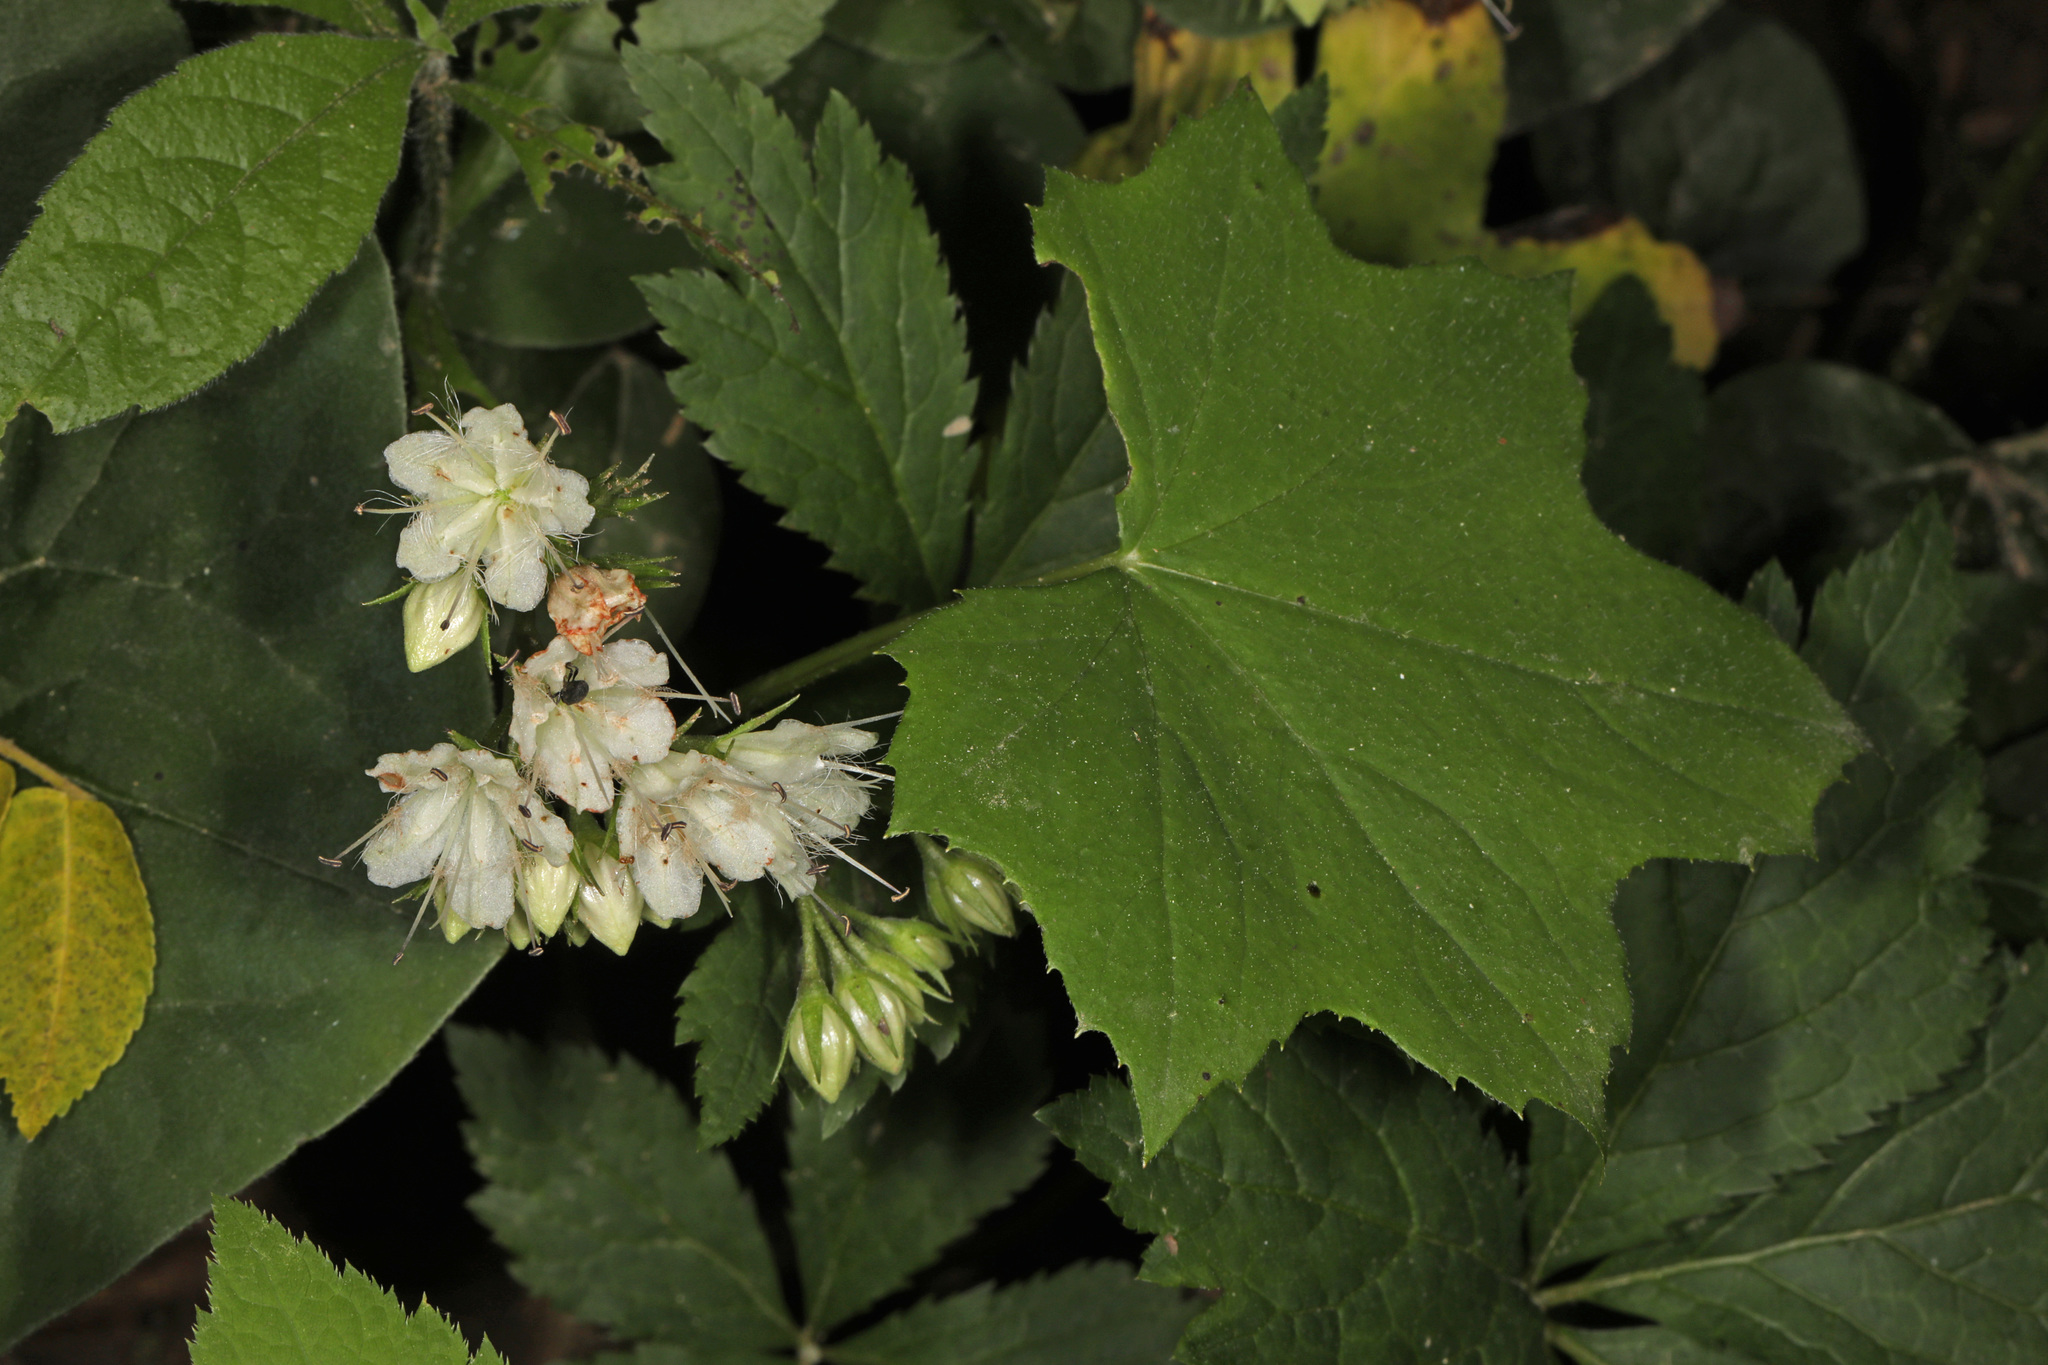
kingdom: Plantae
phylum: Tracheophyta
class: Magnoliopsida
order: Boraginales
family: Hydrophyllaceae
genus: Hydrophyllum
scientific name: Hydrophyllum canadense
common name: Canada waterleaf
